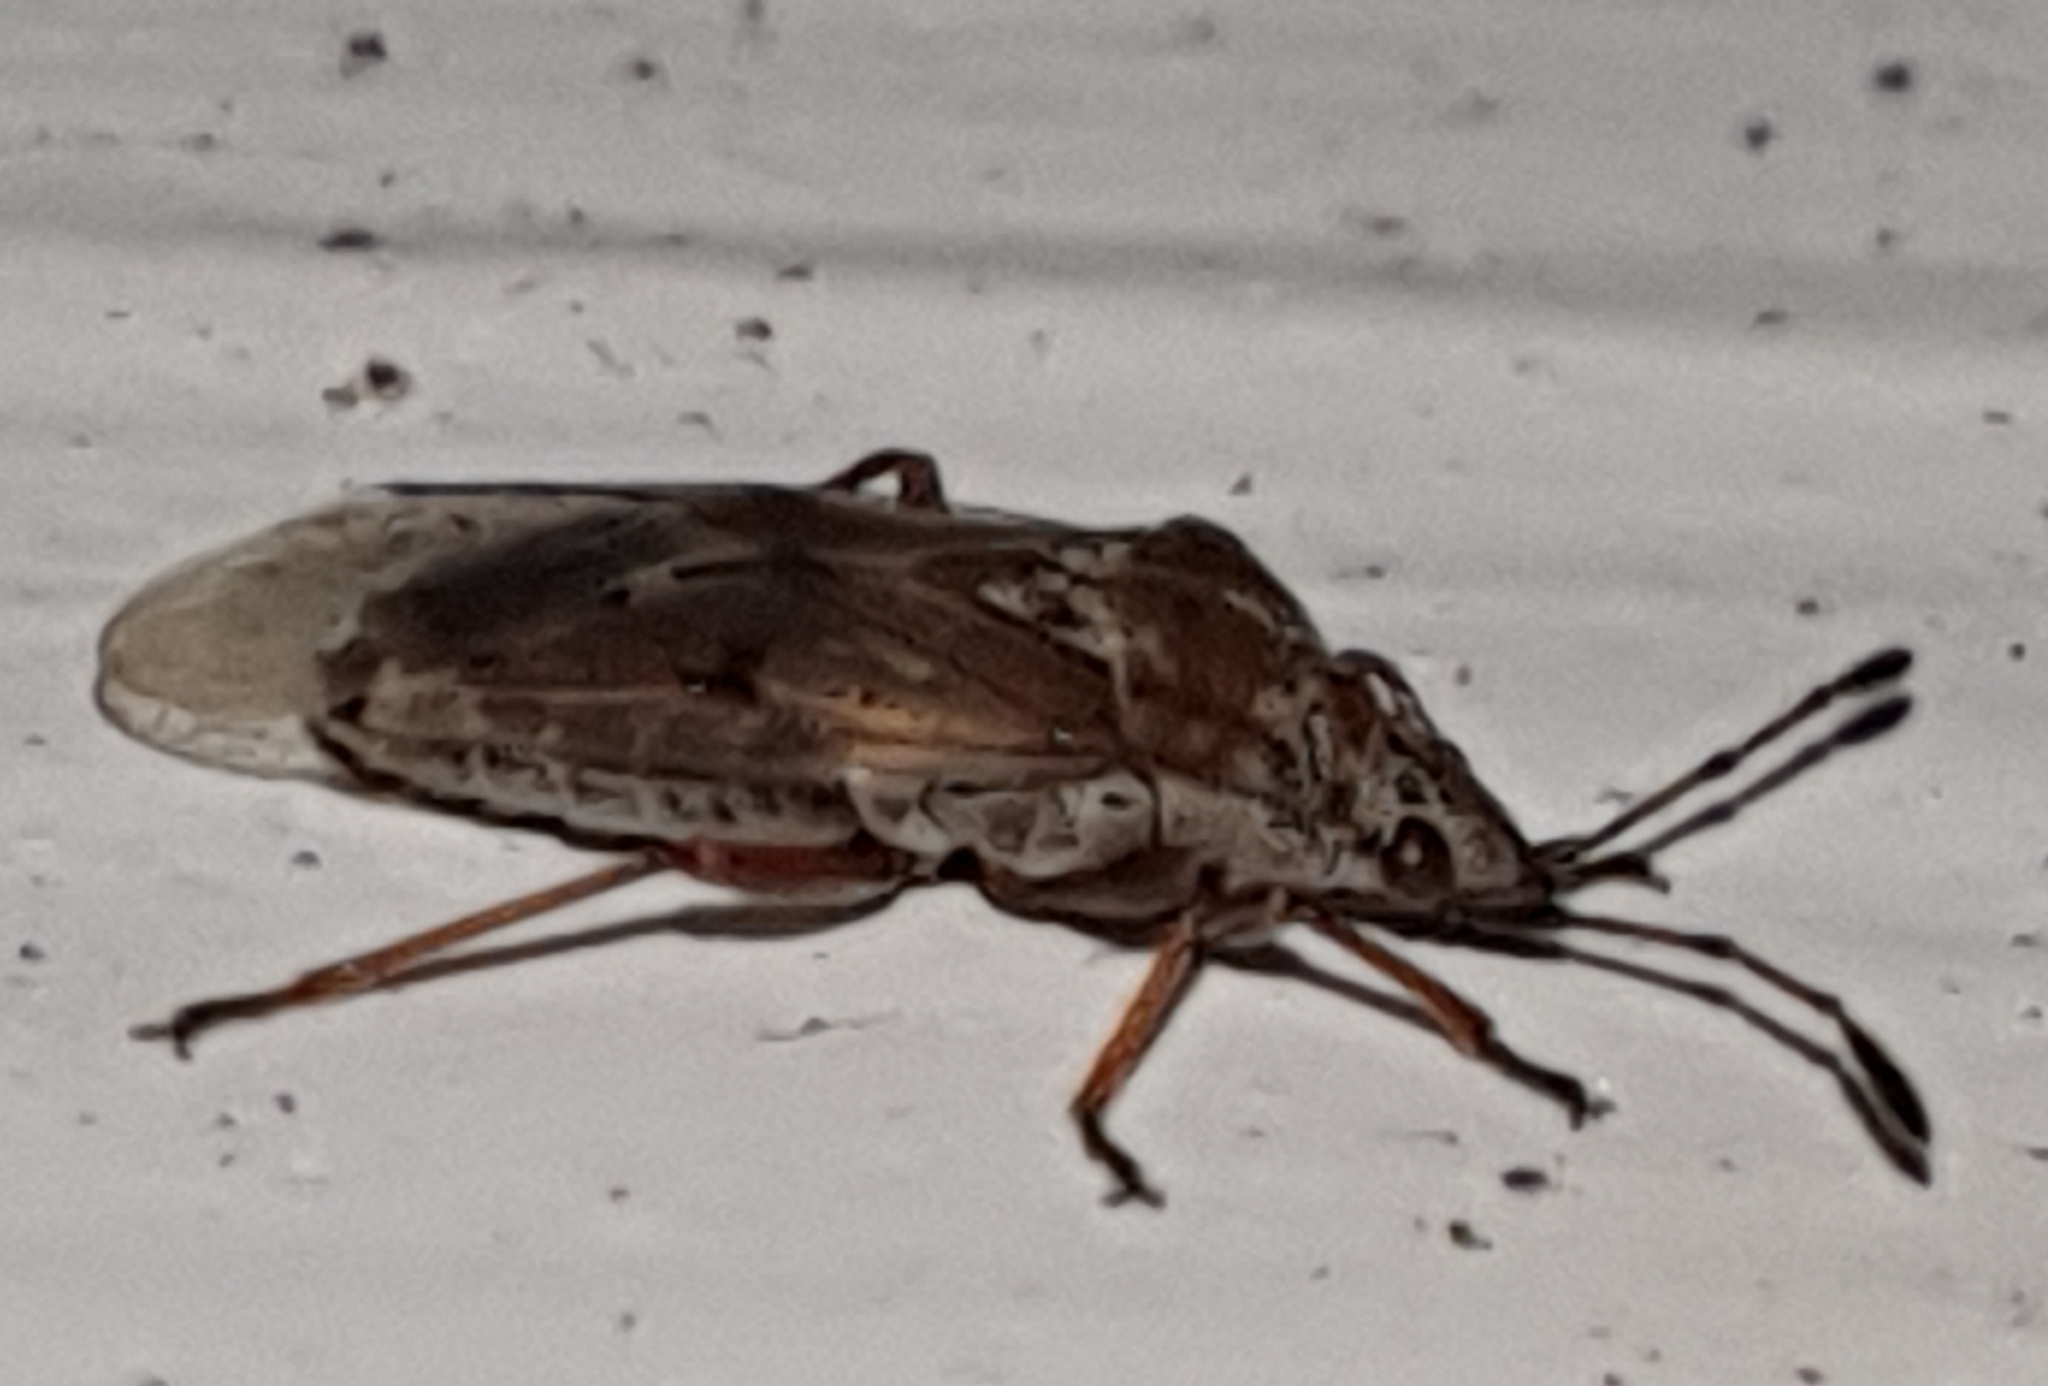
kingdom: Animalia
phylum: Arthropoda
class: Insecta
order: Hemiptera
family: Lygaeidae
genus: Kleidocerys
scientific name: Kleidocerys resedae
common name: Birch catkin bug
